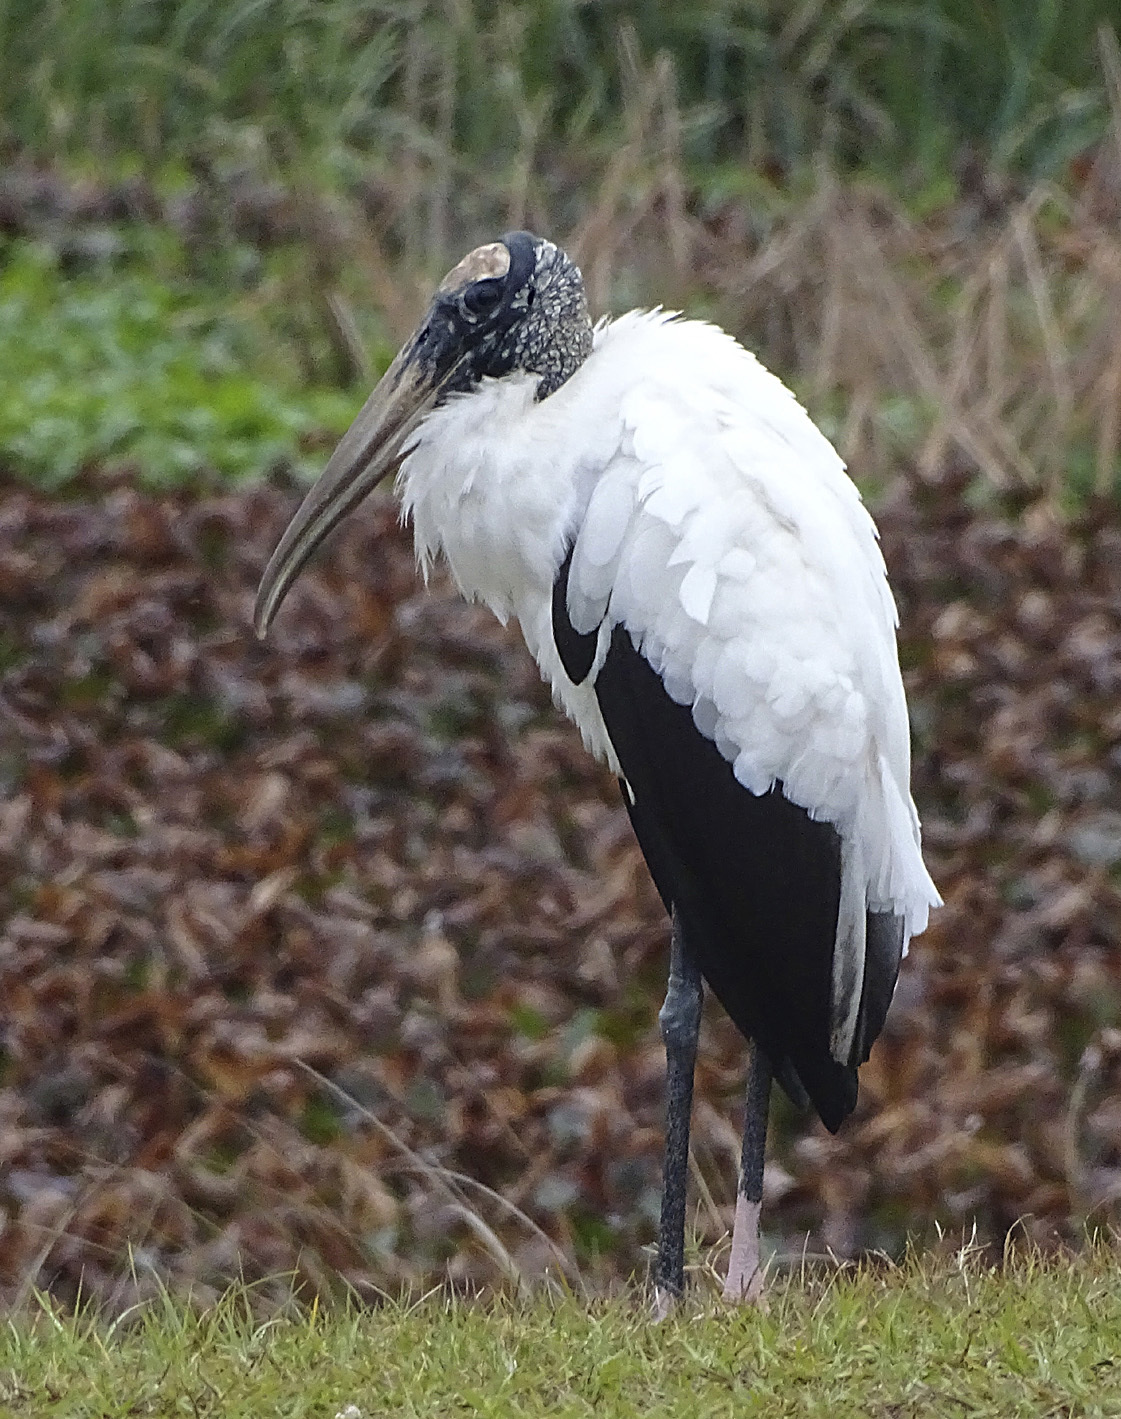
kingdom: Animalia
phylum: Chordata
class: Aves
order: Ciconiiformes
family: Ciconiidae
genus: Mycteria
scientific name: Mycteria americana
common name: Wood stork
